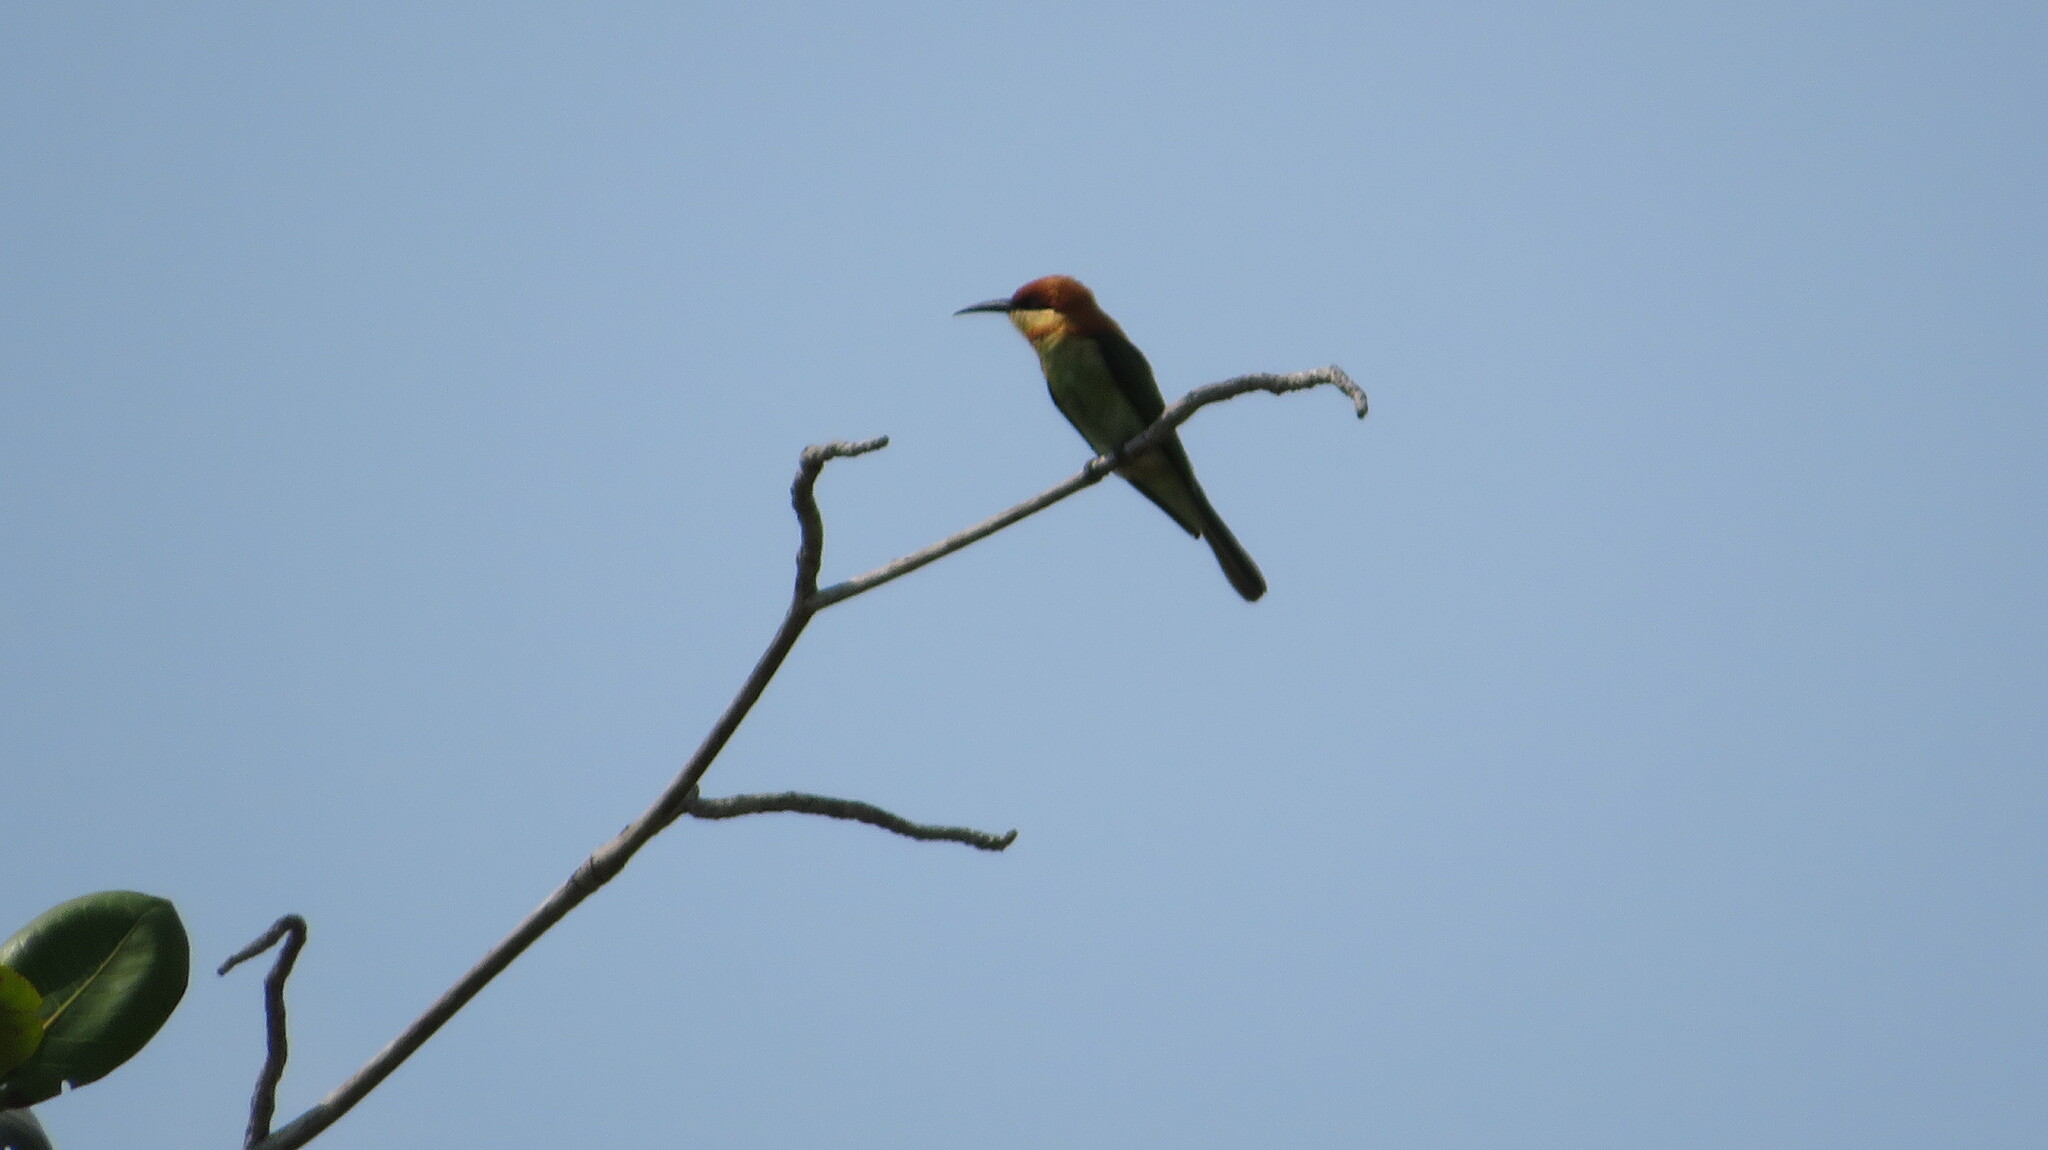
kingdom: Animalia
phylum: Chordata
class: Aves
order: Coraciiformes
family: Meropidae
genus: Merops
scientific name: Merops leschenaulti
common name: Chestnut-headed bee-eater
